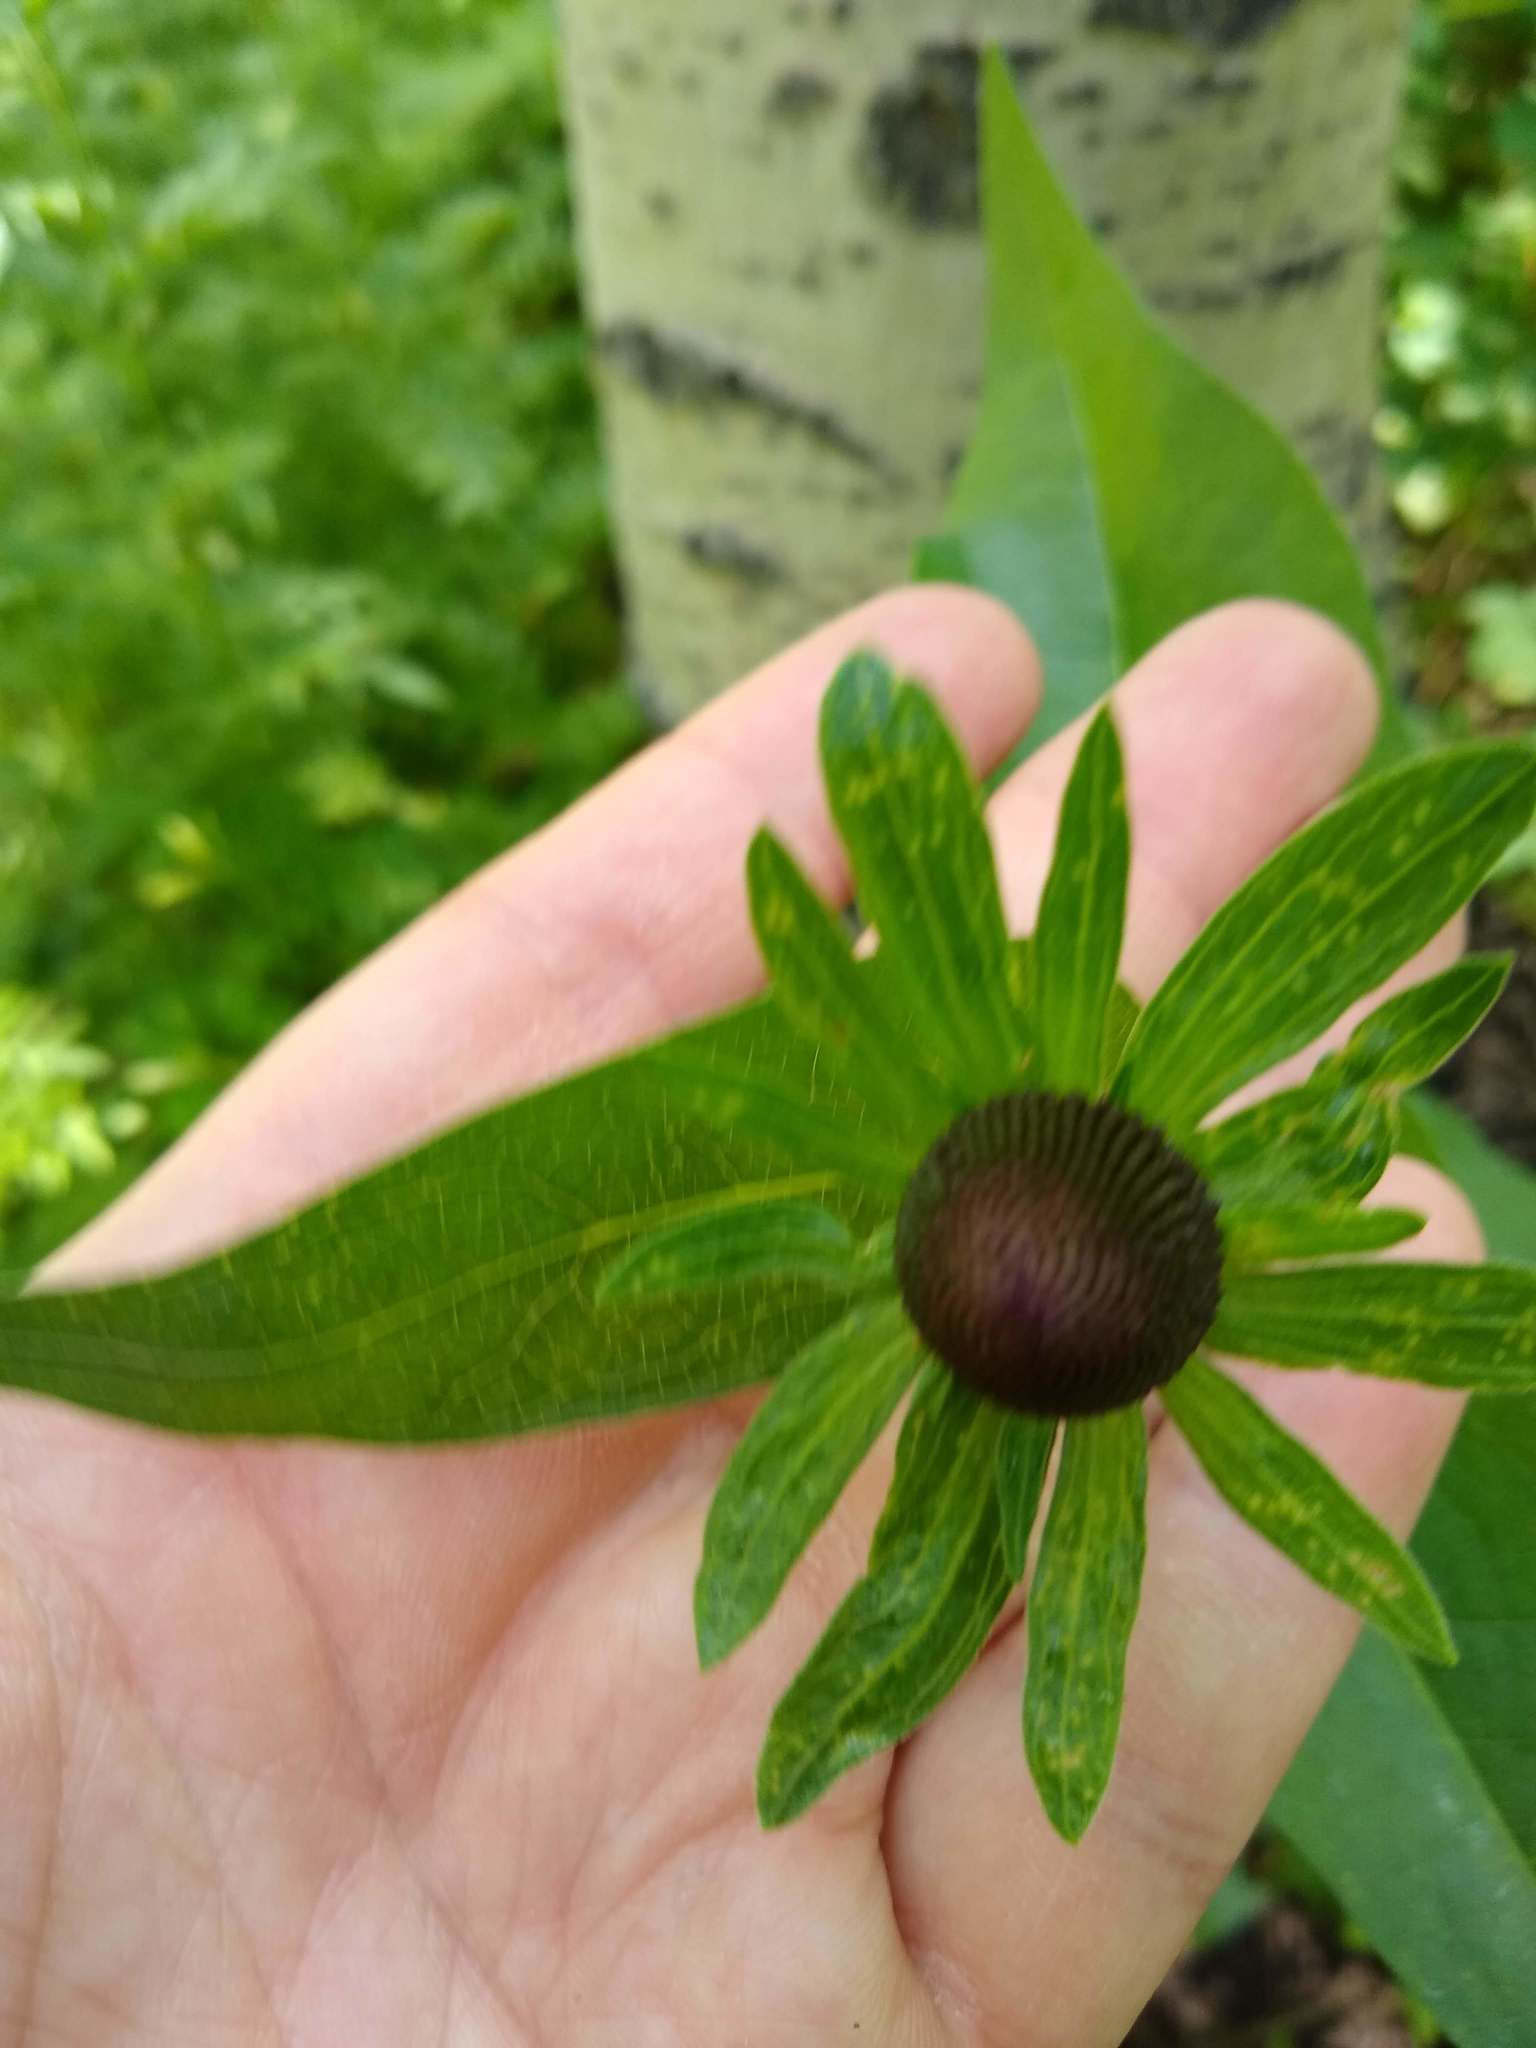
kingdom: Plantae
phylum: Tracheophyta
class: Magnoliopsida
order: Asterales
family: Asteraceae
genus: Rudbeckia
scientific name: Rudbeckia occidentalis
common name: Western coneflower
